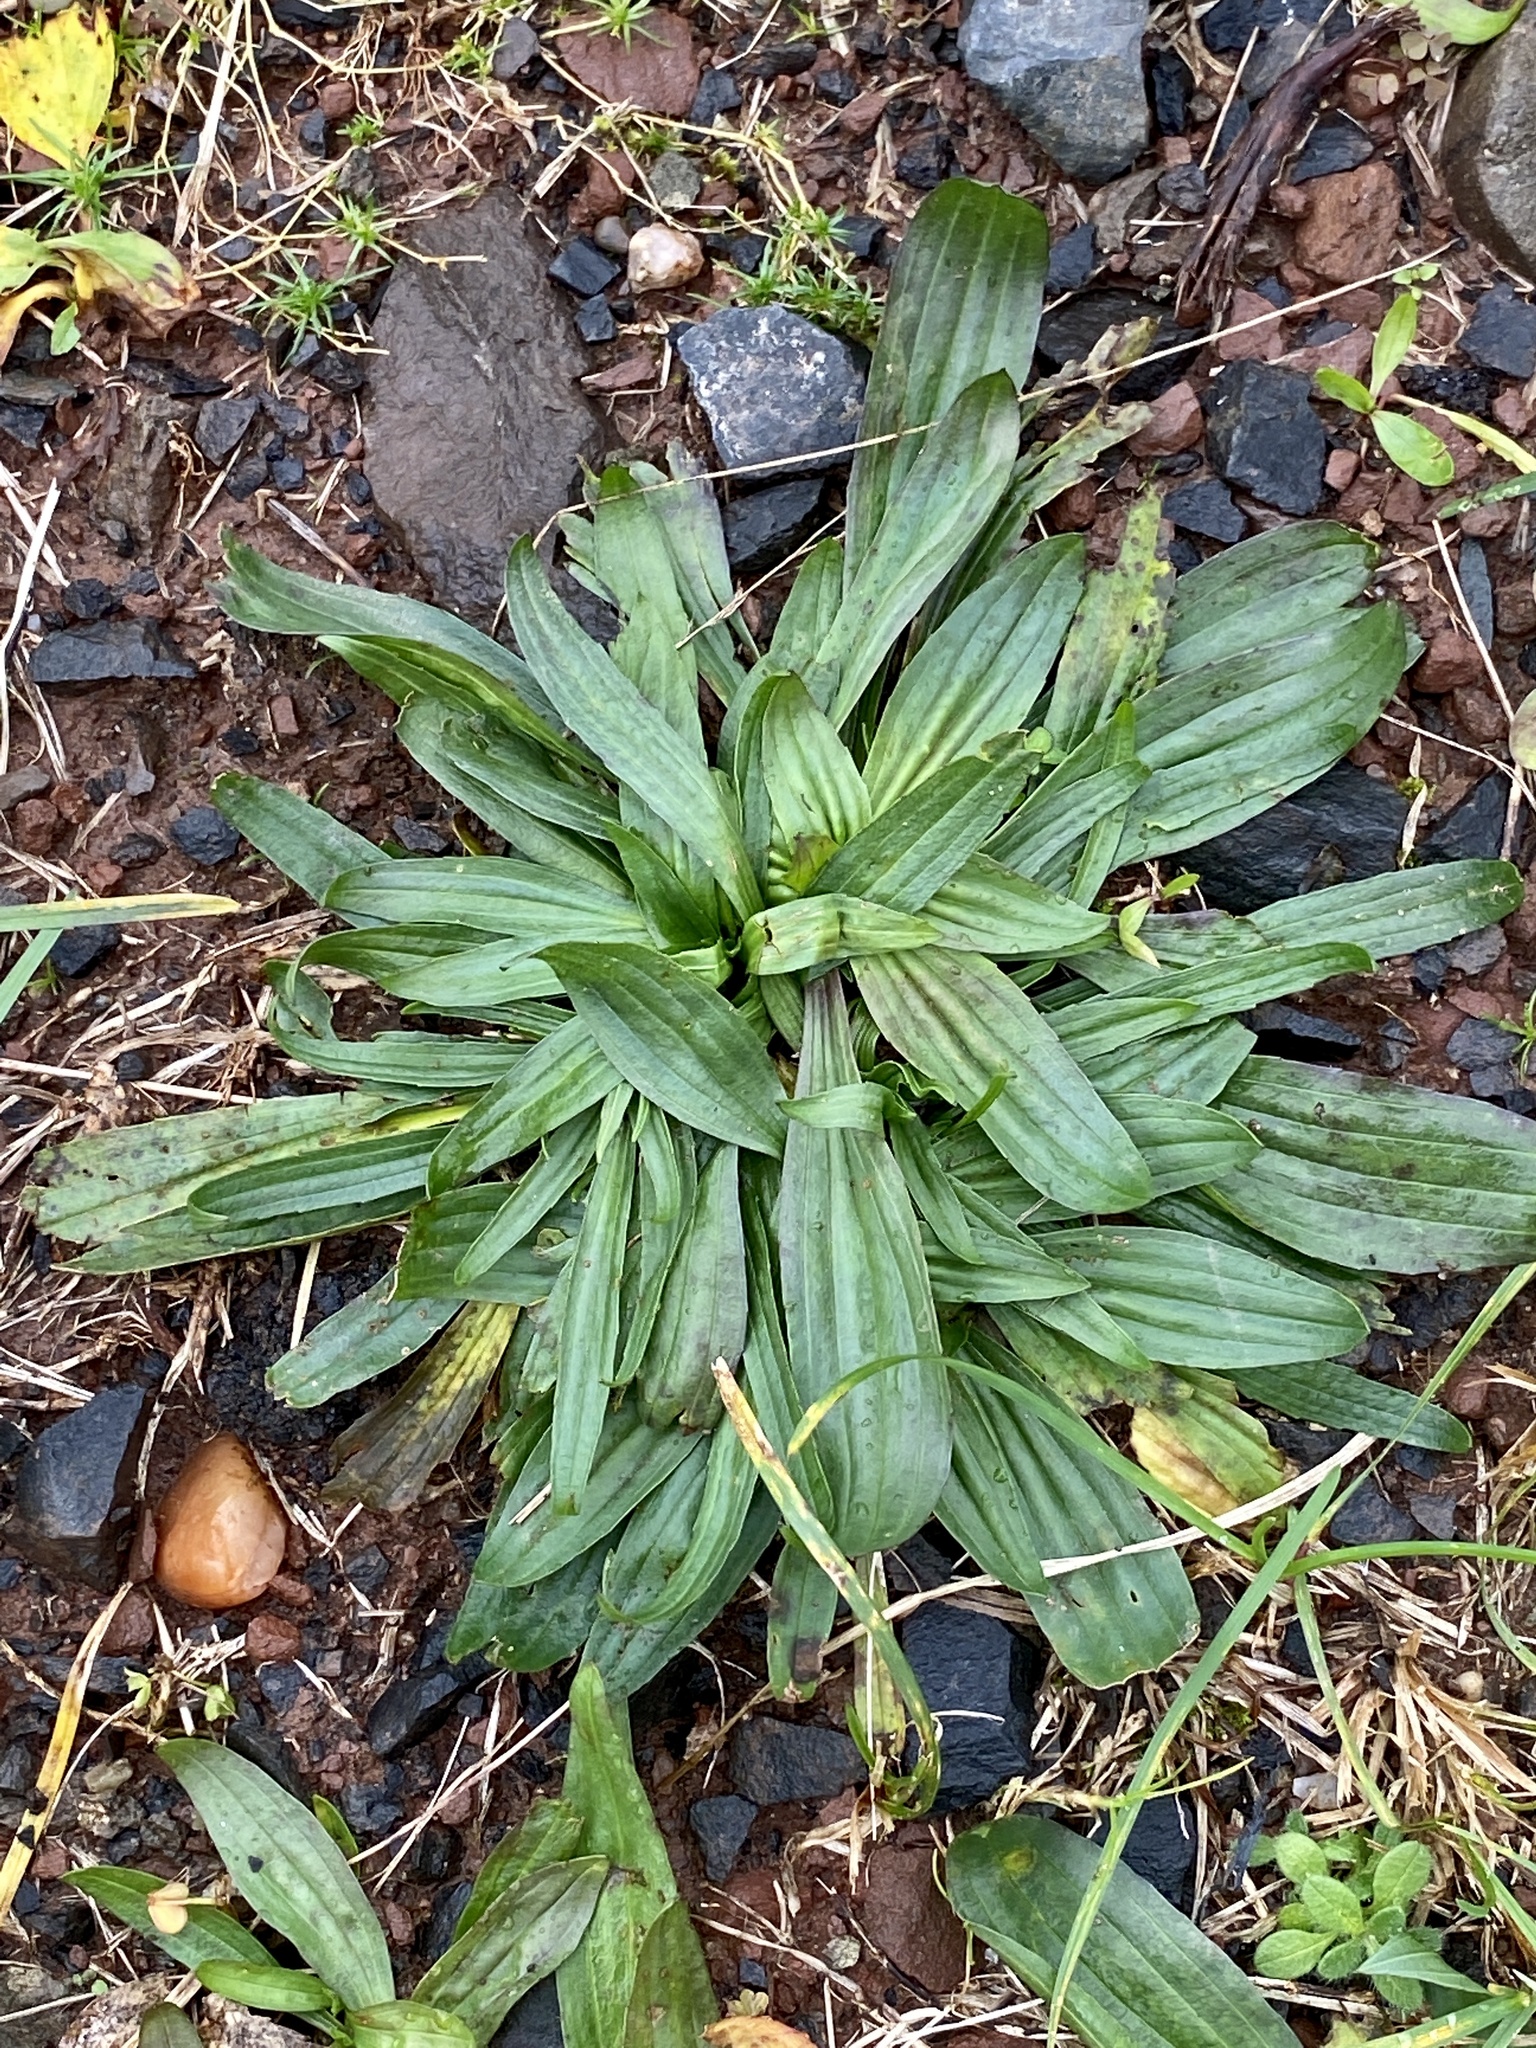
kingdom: Plantae
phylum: Tracheophyta
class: Magnoliopsida
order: Lamiales
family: Plantaginaceae
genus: Plantago
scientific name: Plantago lanceolata
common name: Ribwort plantain
